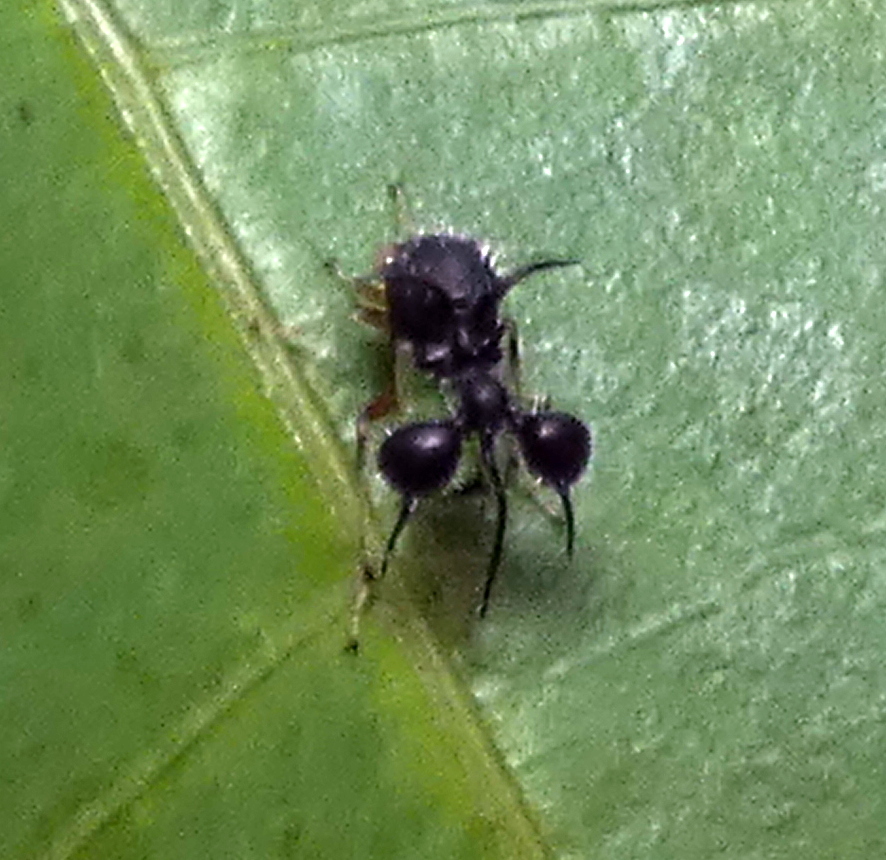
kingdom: Animalia
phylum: Arthropoda
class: Insecta
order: Hemiptera
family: Membracidae
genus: Cyphonia
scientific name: Cyphonia clavata
